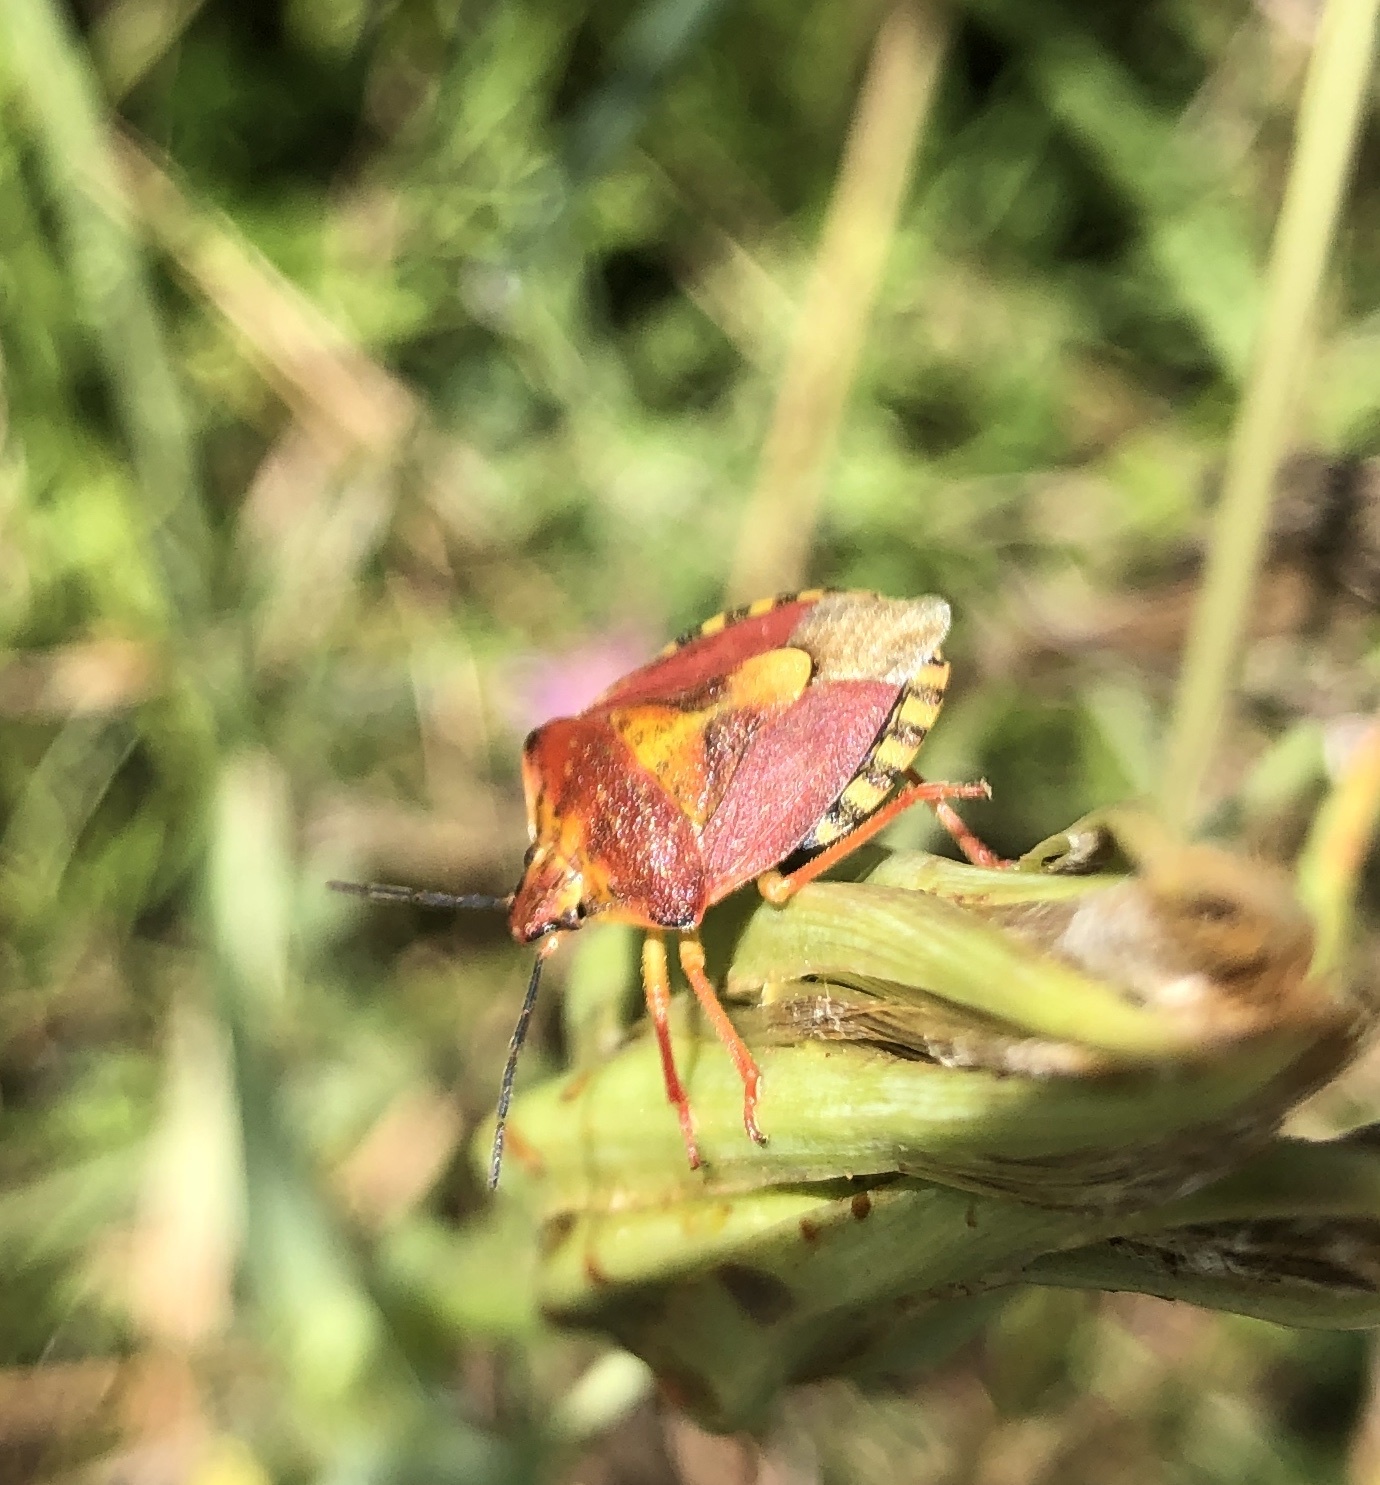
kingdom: Animalia
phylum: Arthropoda
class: Insecta
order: Hemiptera
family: Pentatomidae
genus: Carpocoris
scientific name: Carpocoris purpureipennis
